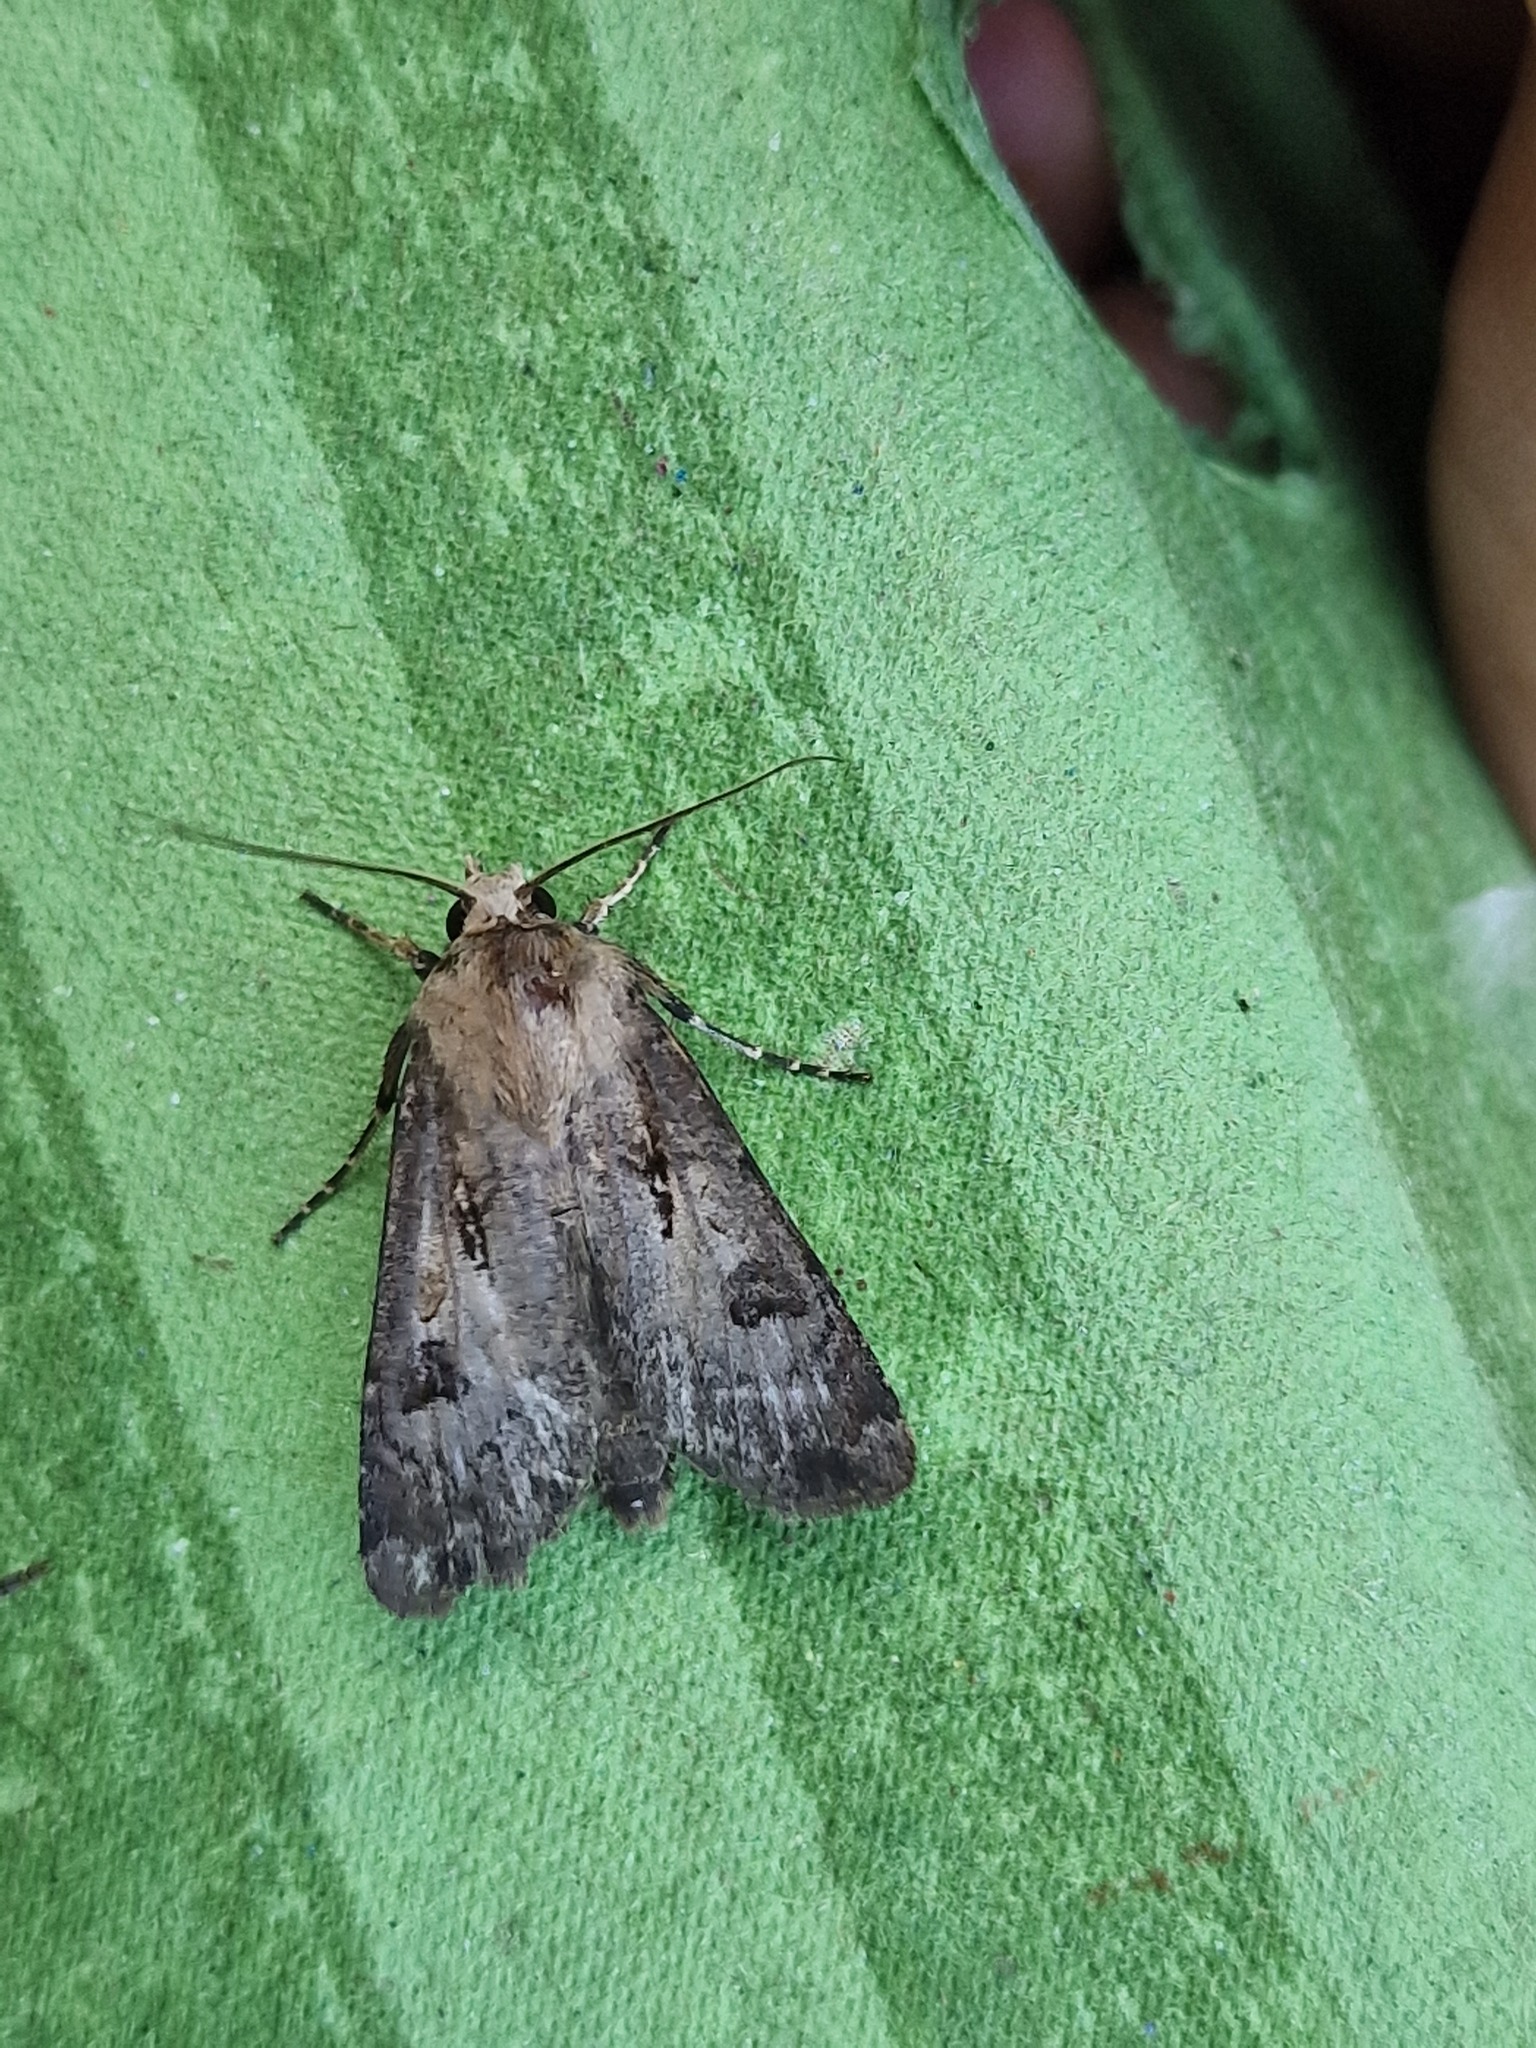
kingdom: Animalia
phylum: Arthropoda
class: Insecta
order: Lepidoptera
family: Noctuidae
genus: Agrotis
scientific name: Agrotis exclamationis
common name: Heart and dart
